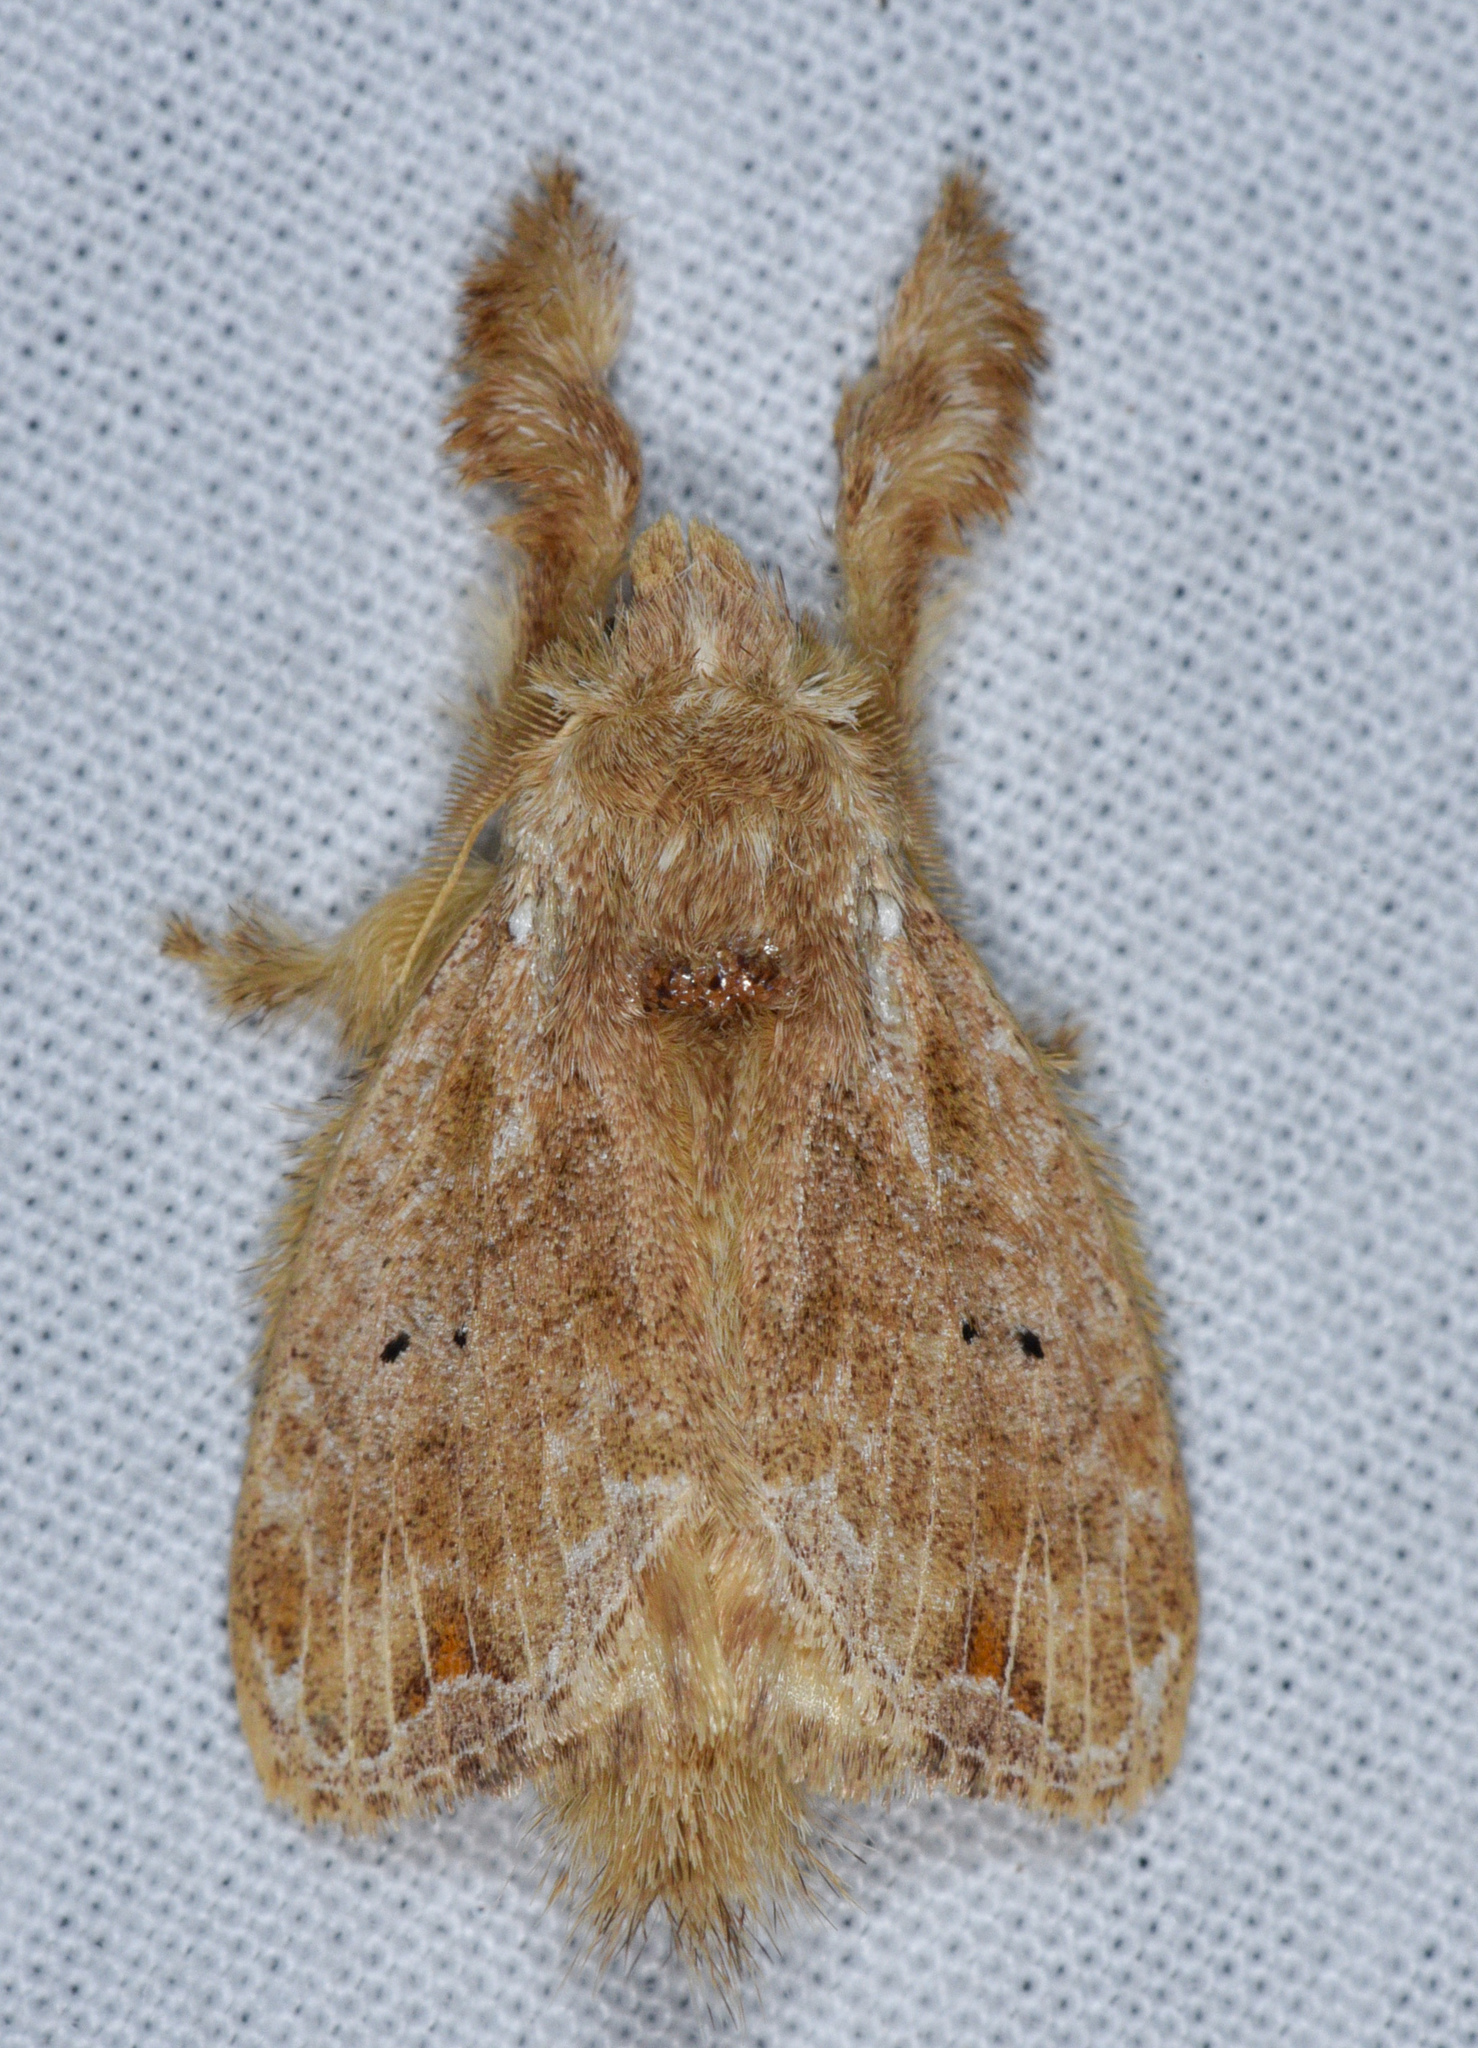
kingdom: Animalia
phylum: Arthropoda
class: Insecta
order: Lepidoptera
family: Lasiocampidae
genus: Nesara
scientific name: Nesara caramina
